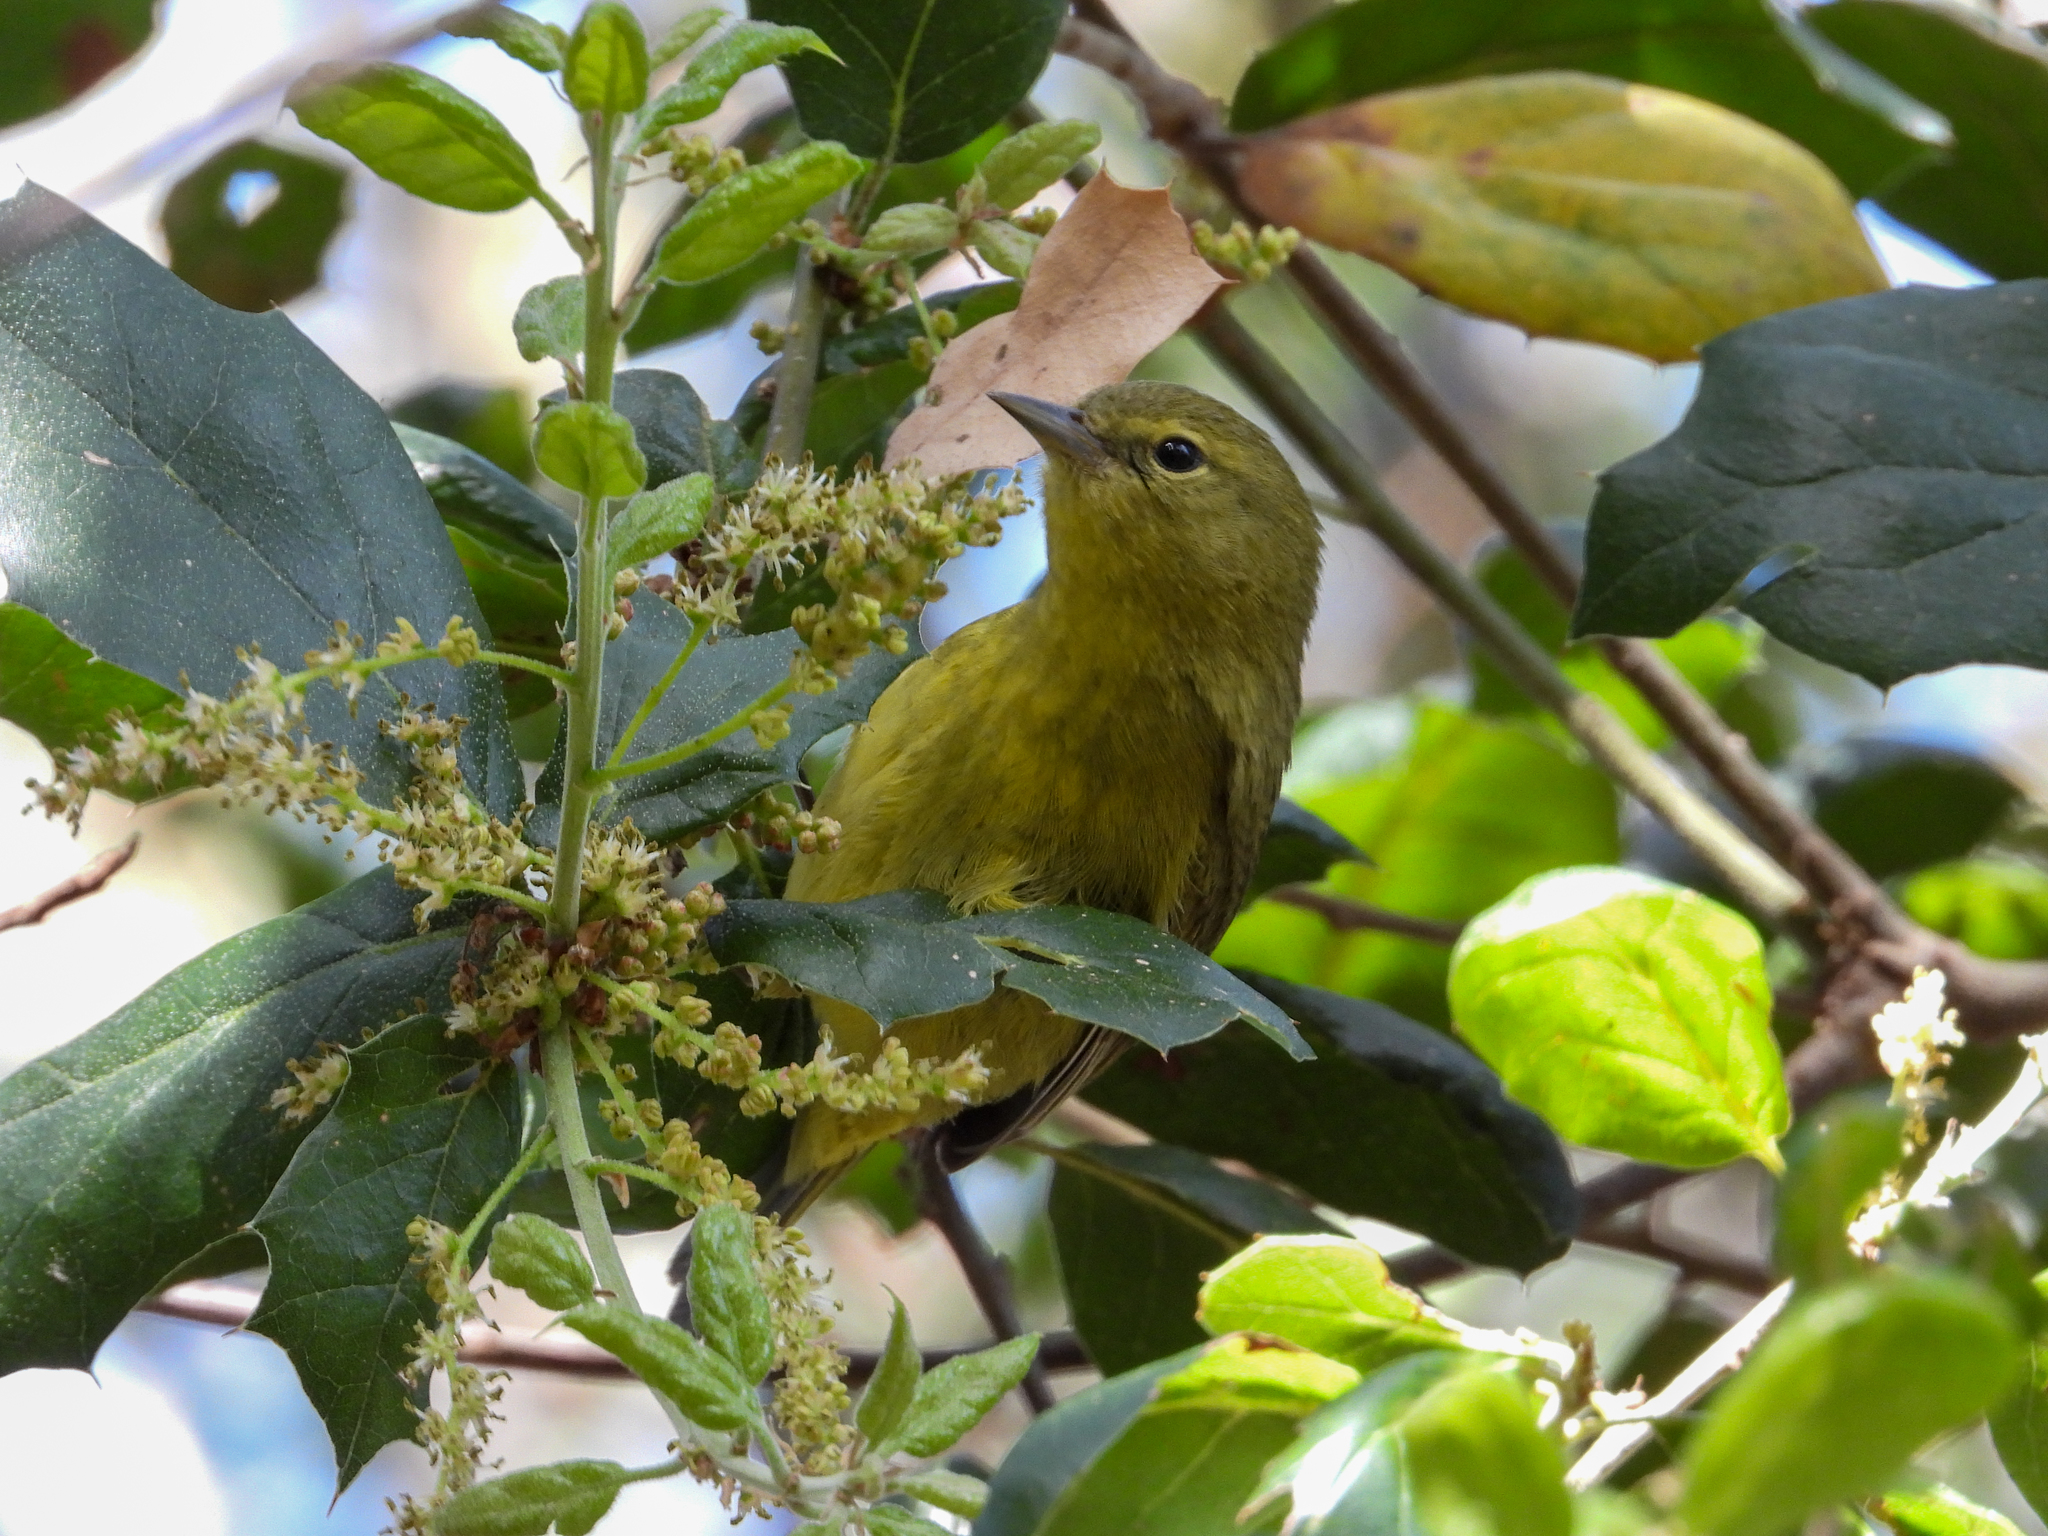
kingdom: Animalia
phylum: Chordata
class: Aves
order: Passeriformes
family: Parulidae
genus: Leiothlypis
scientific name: Leiothlypis celata
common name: Orange-crowned warbler
